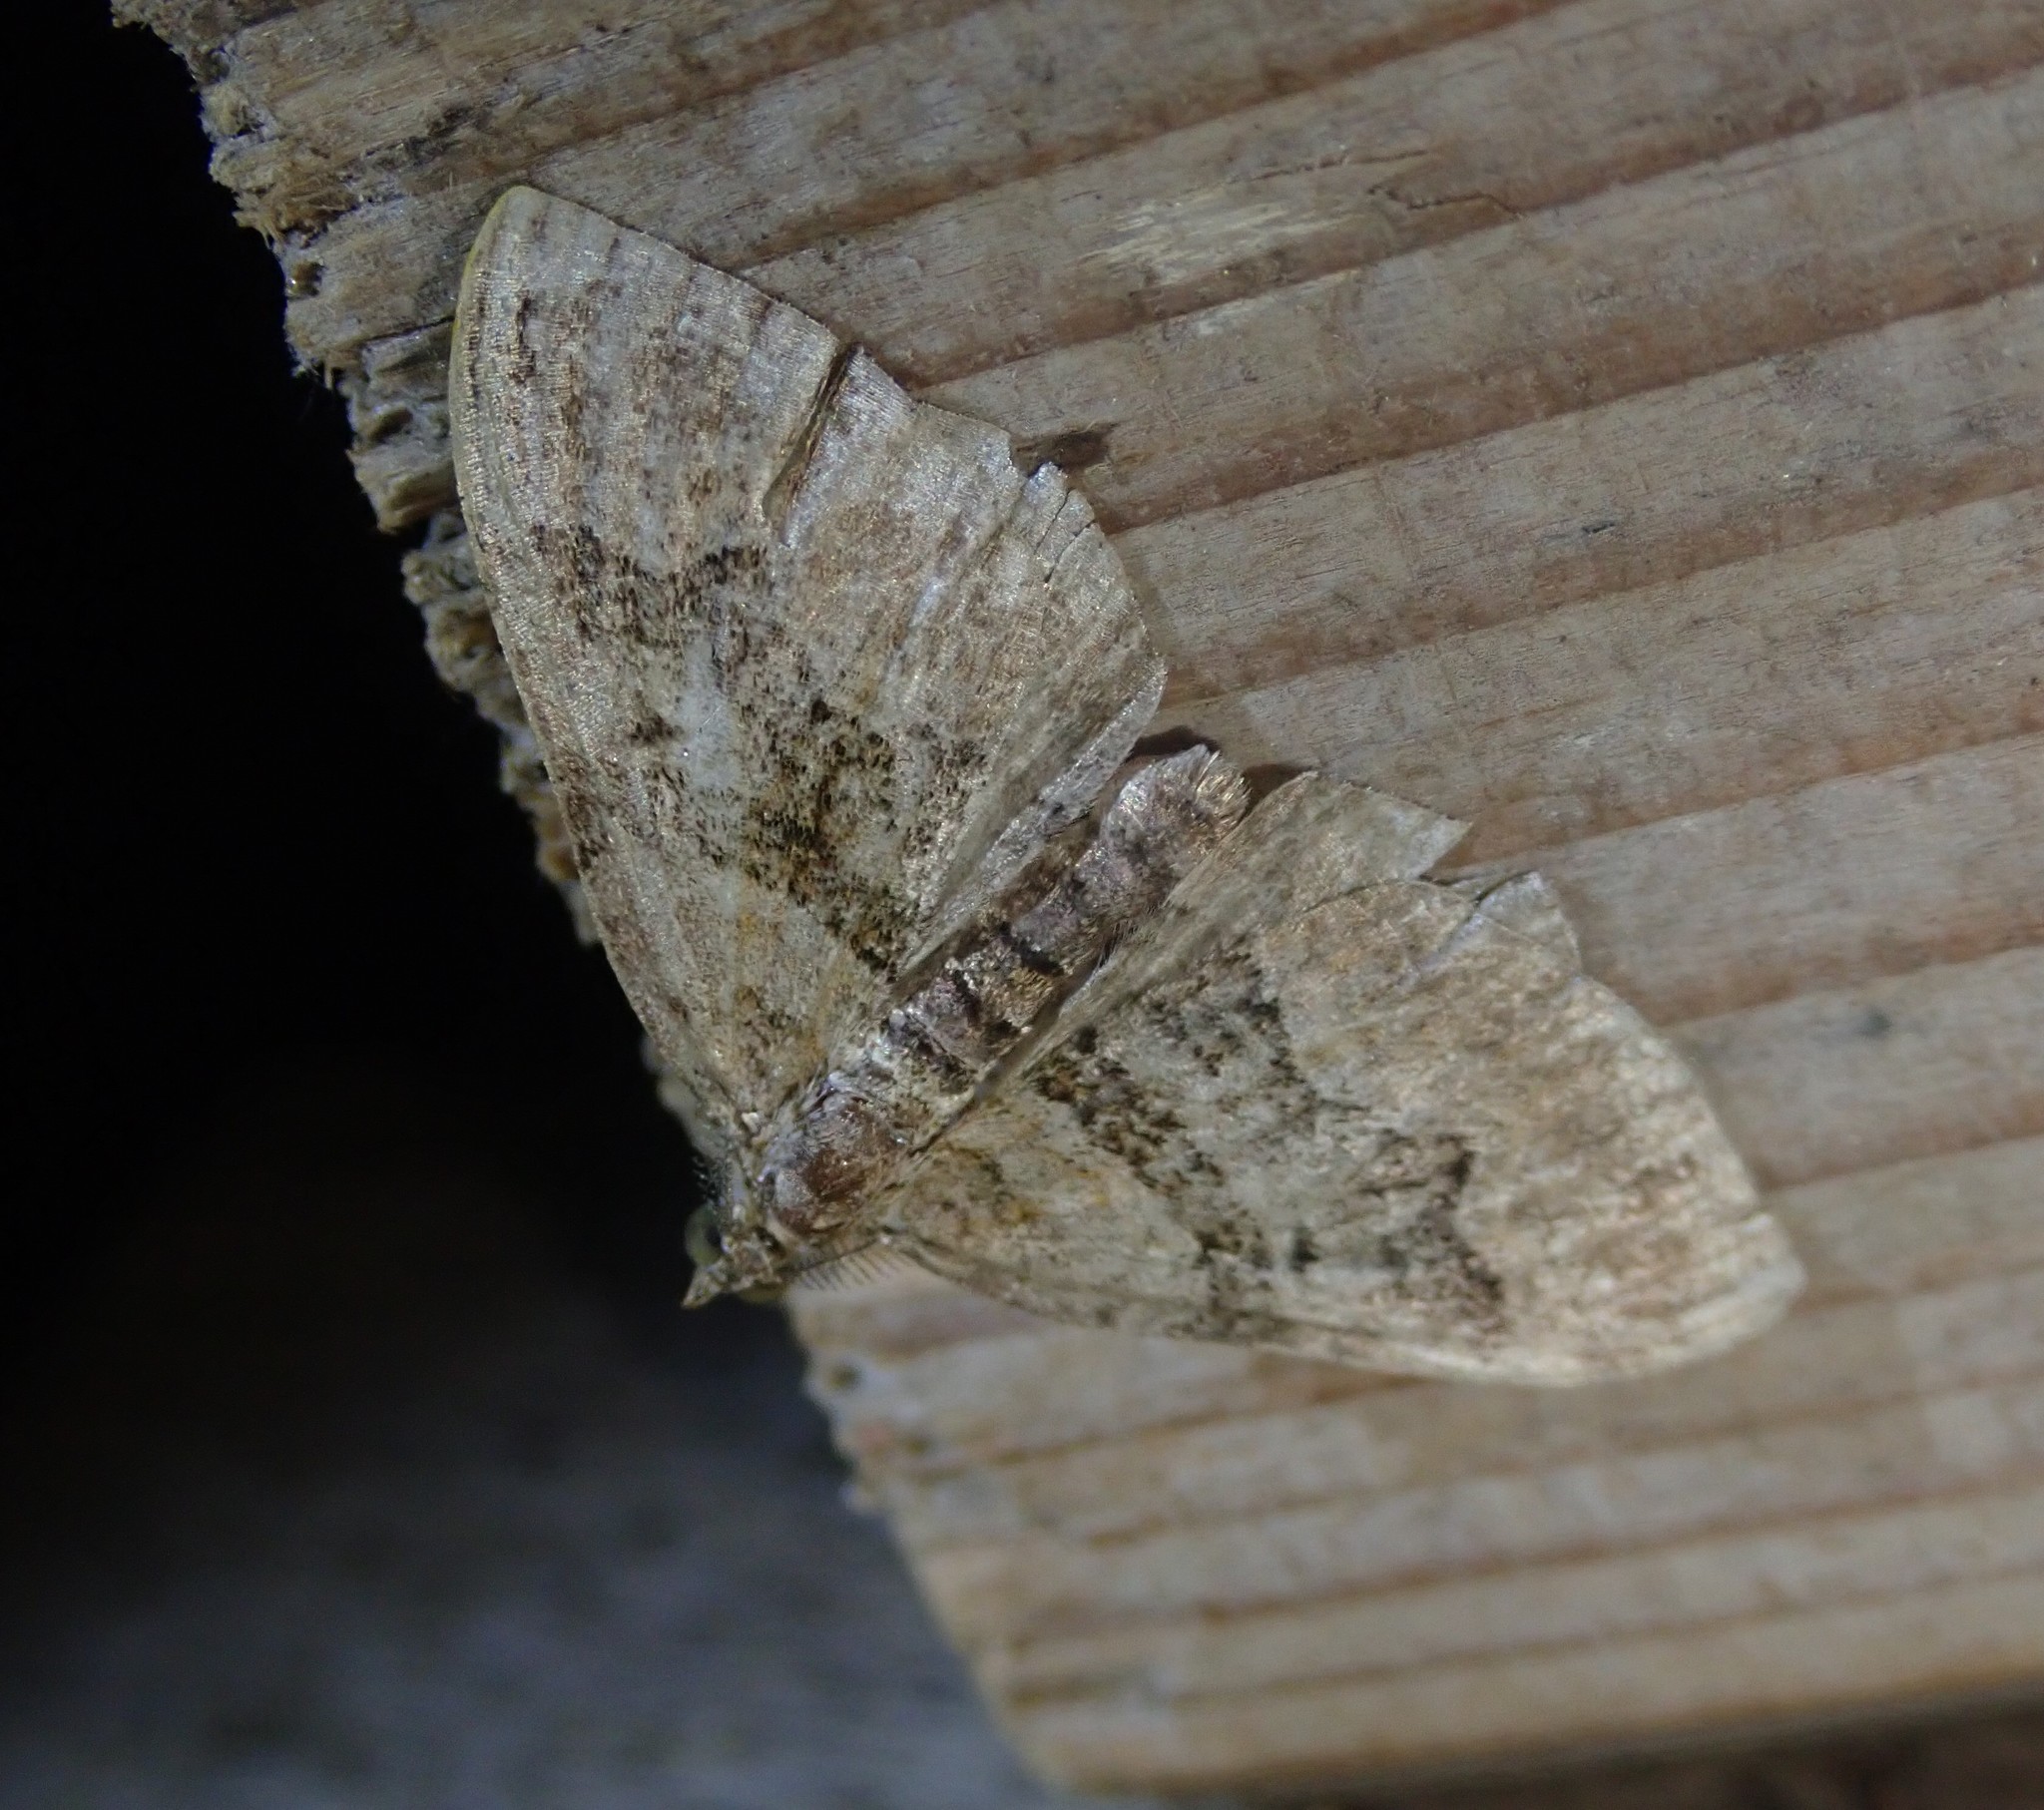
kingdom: Animalia
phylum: Arthropoda
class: Insecta
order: Lepidoptera
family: Geometridae
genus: Xanthorhoe
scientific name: Xanthorhoe quadrifasiata
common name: Large twin-spot carpet
